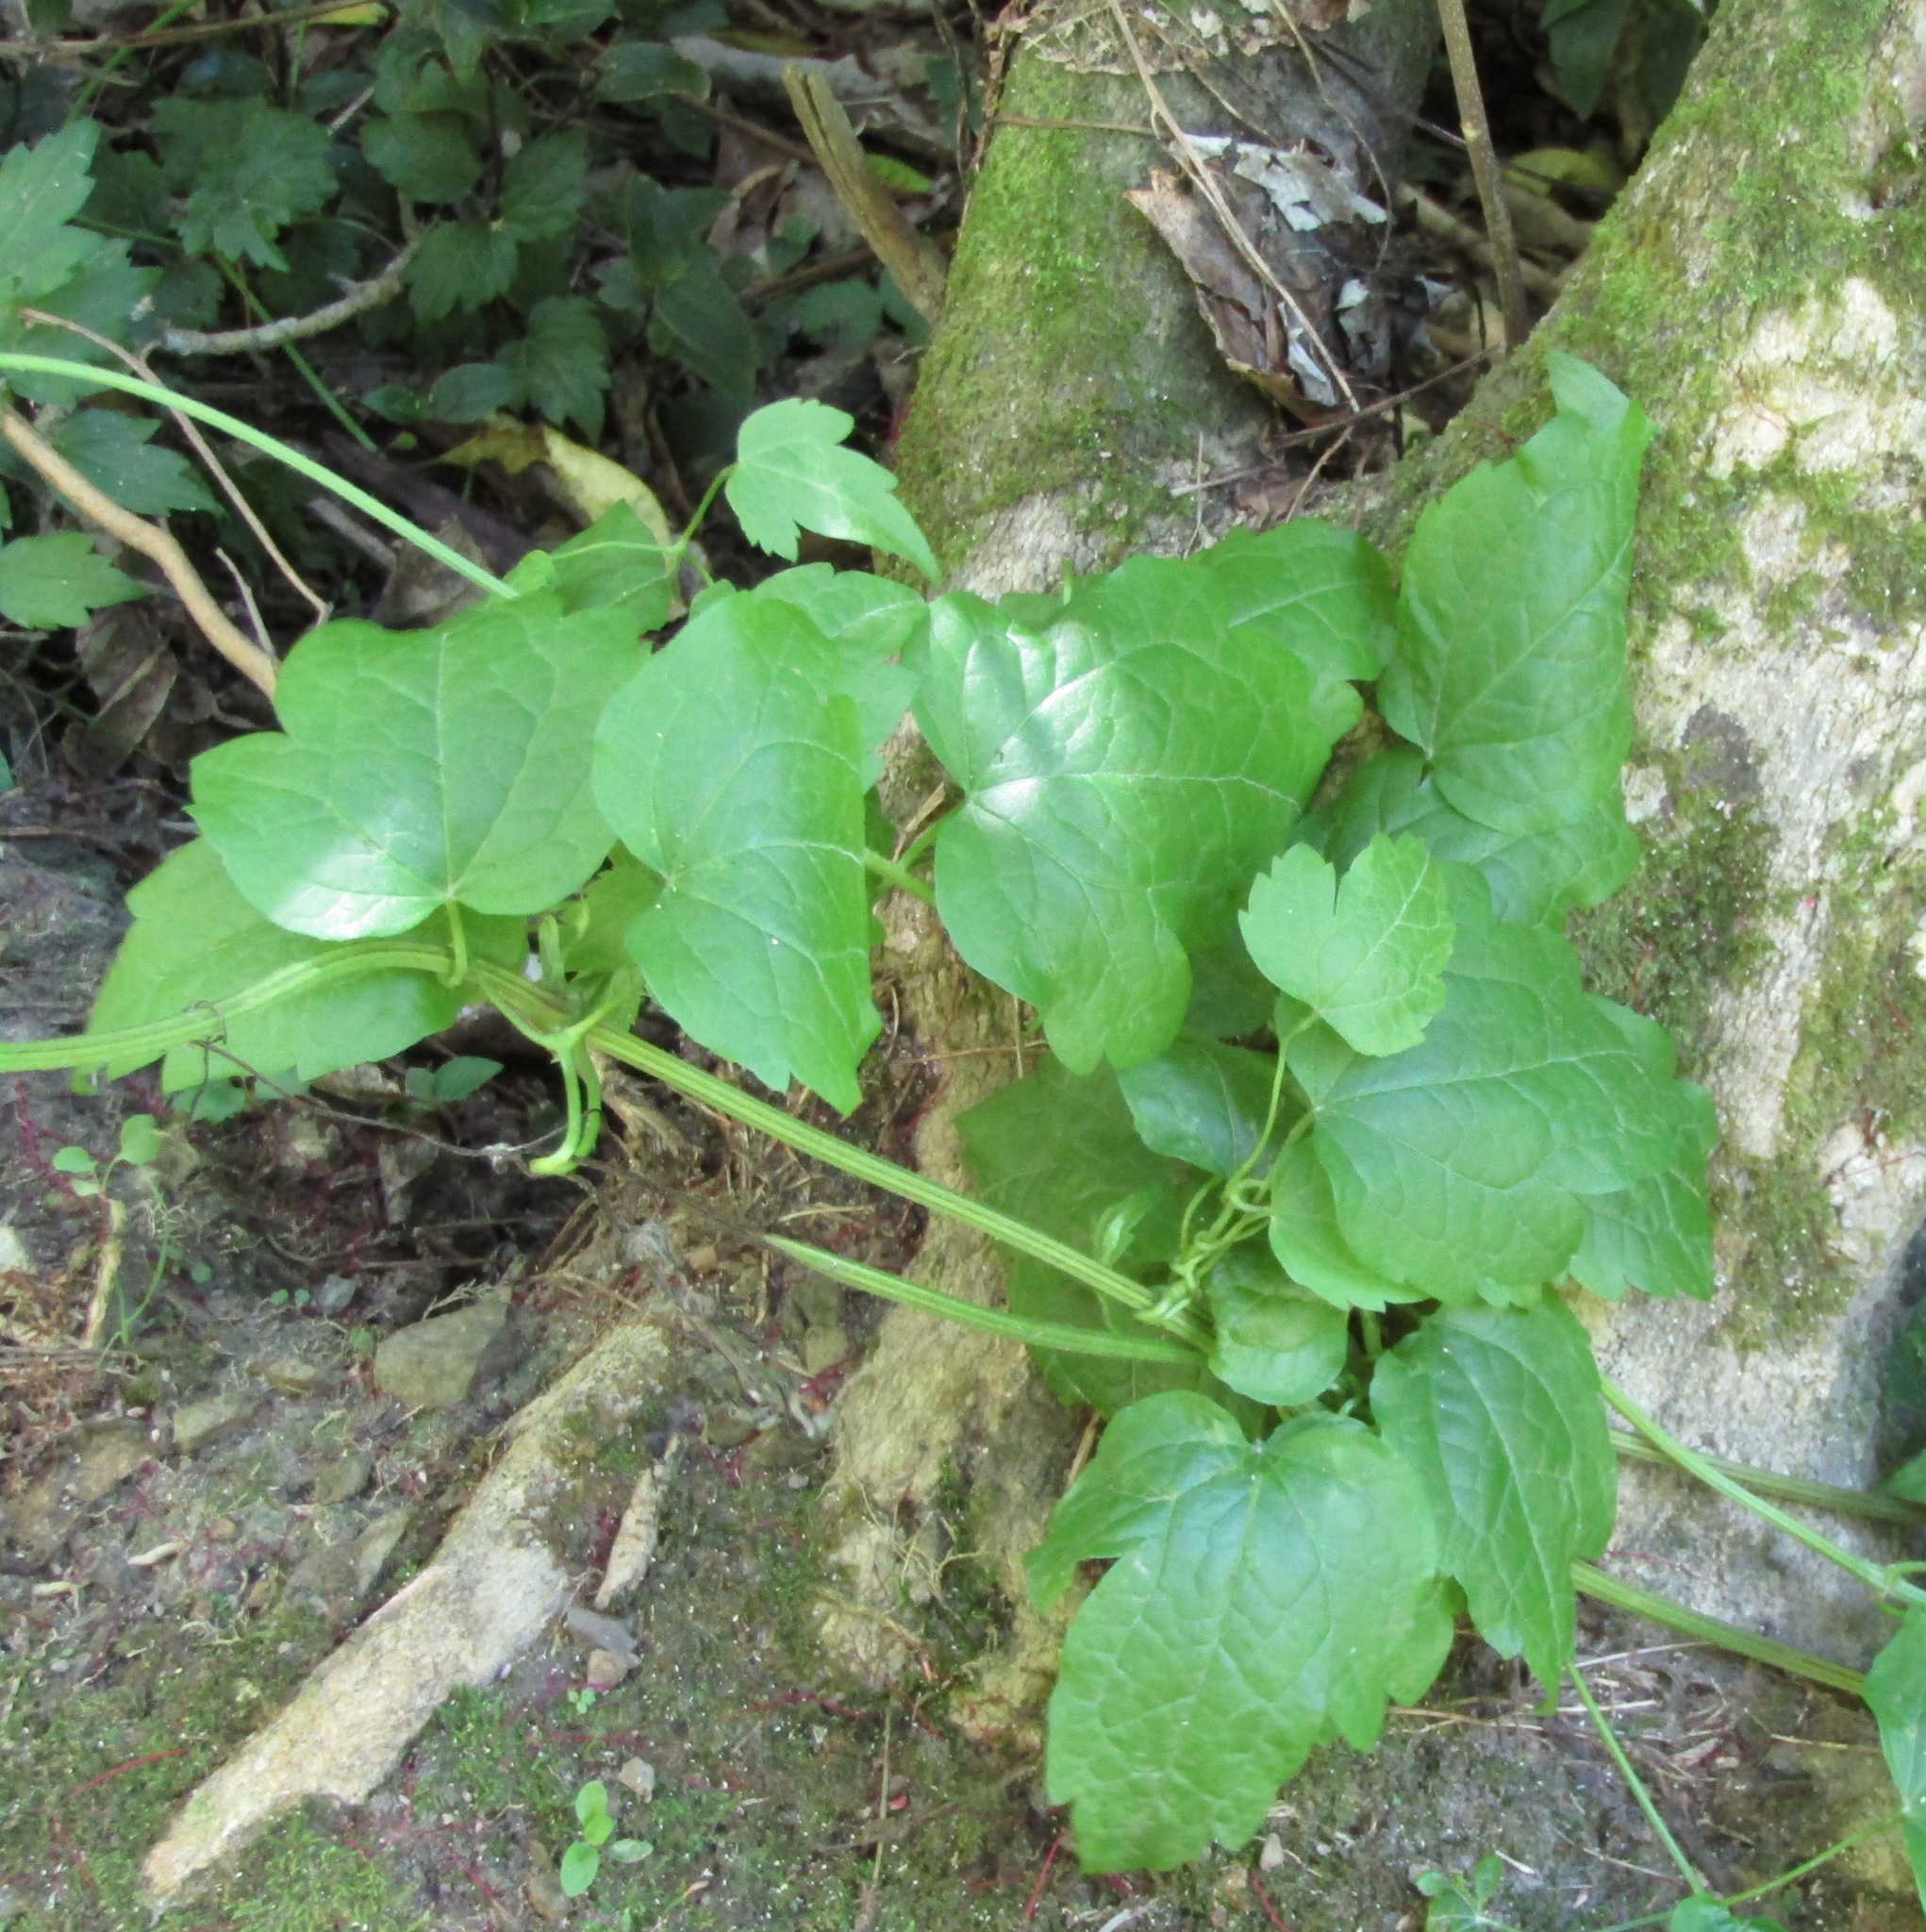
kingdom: Plantae
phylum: Tracheophyta
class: Magnoliopsida
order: Ranunculales
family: Ranunculaceae
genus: Clematis
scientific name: Clematis vitalba
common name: Evergreen clematis
